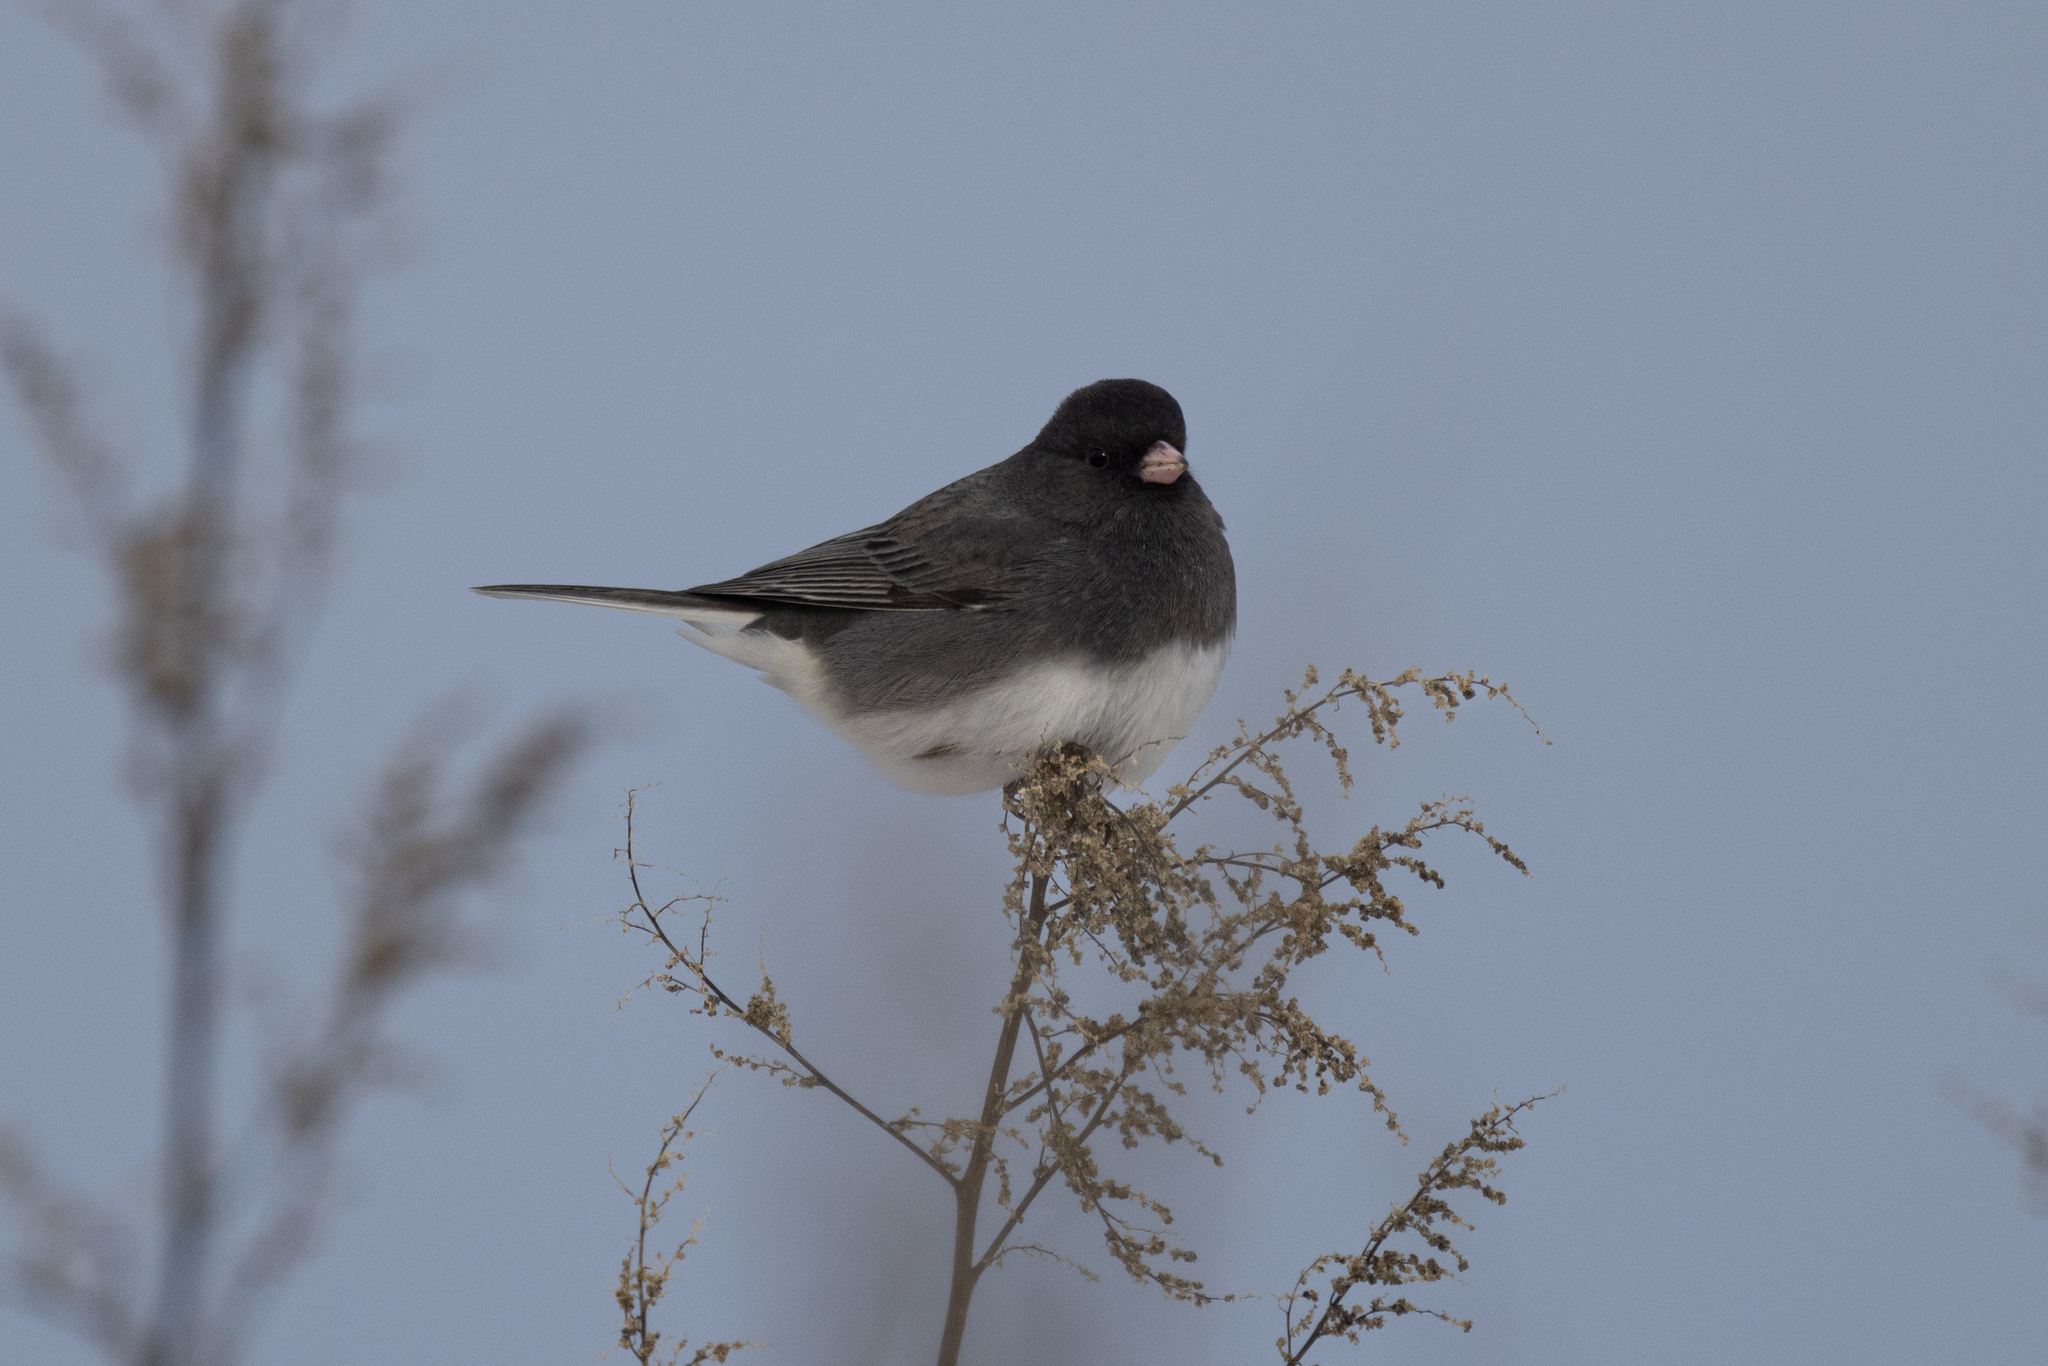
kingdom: Animalia
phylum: Chordata
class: Aves
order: Passeriformes
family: Passerellidae
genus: Junco
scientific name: Junco hyemalis
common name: Dark-eyed junco
